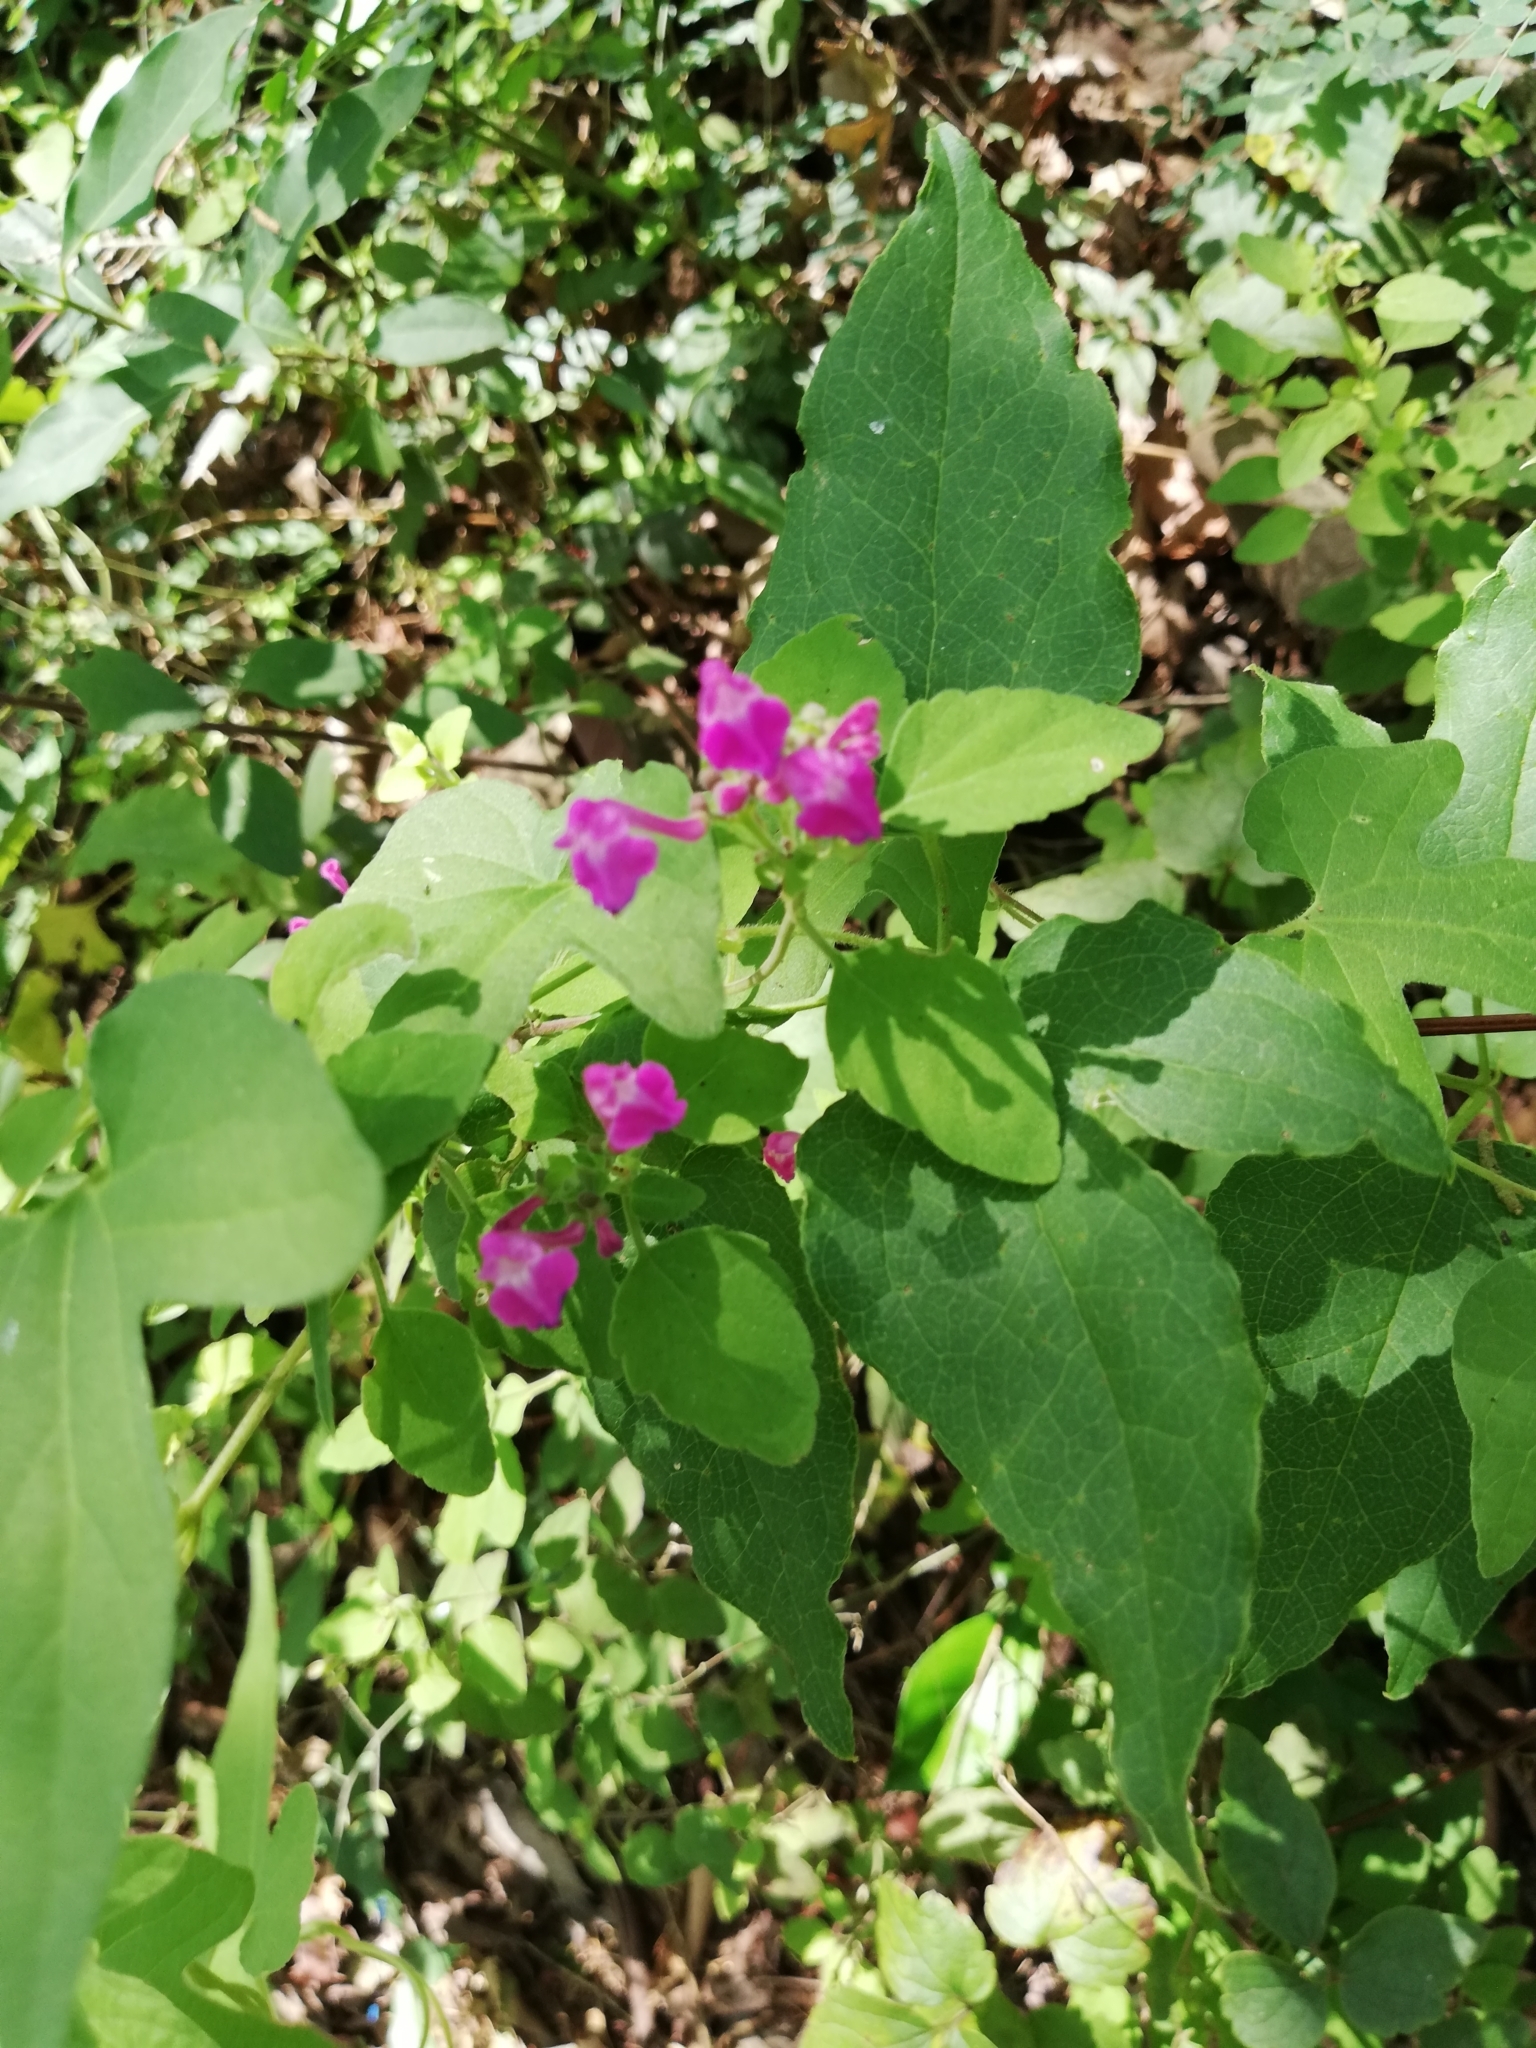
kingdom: Plantae
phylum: Tracheophyta
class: Magnoliopsida
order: Lamiales
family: Lamiaceae
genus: Scutellaria
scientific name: Scutellaria seleriana
